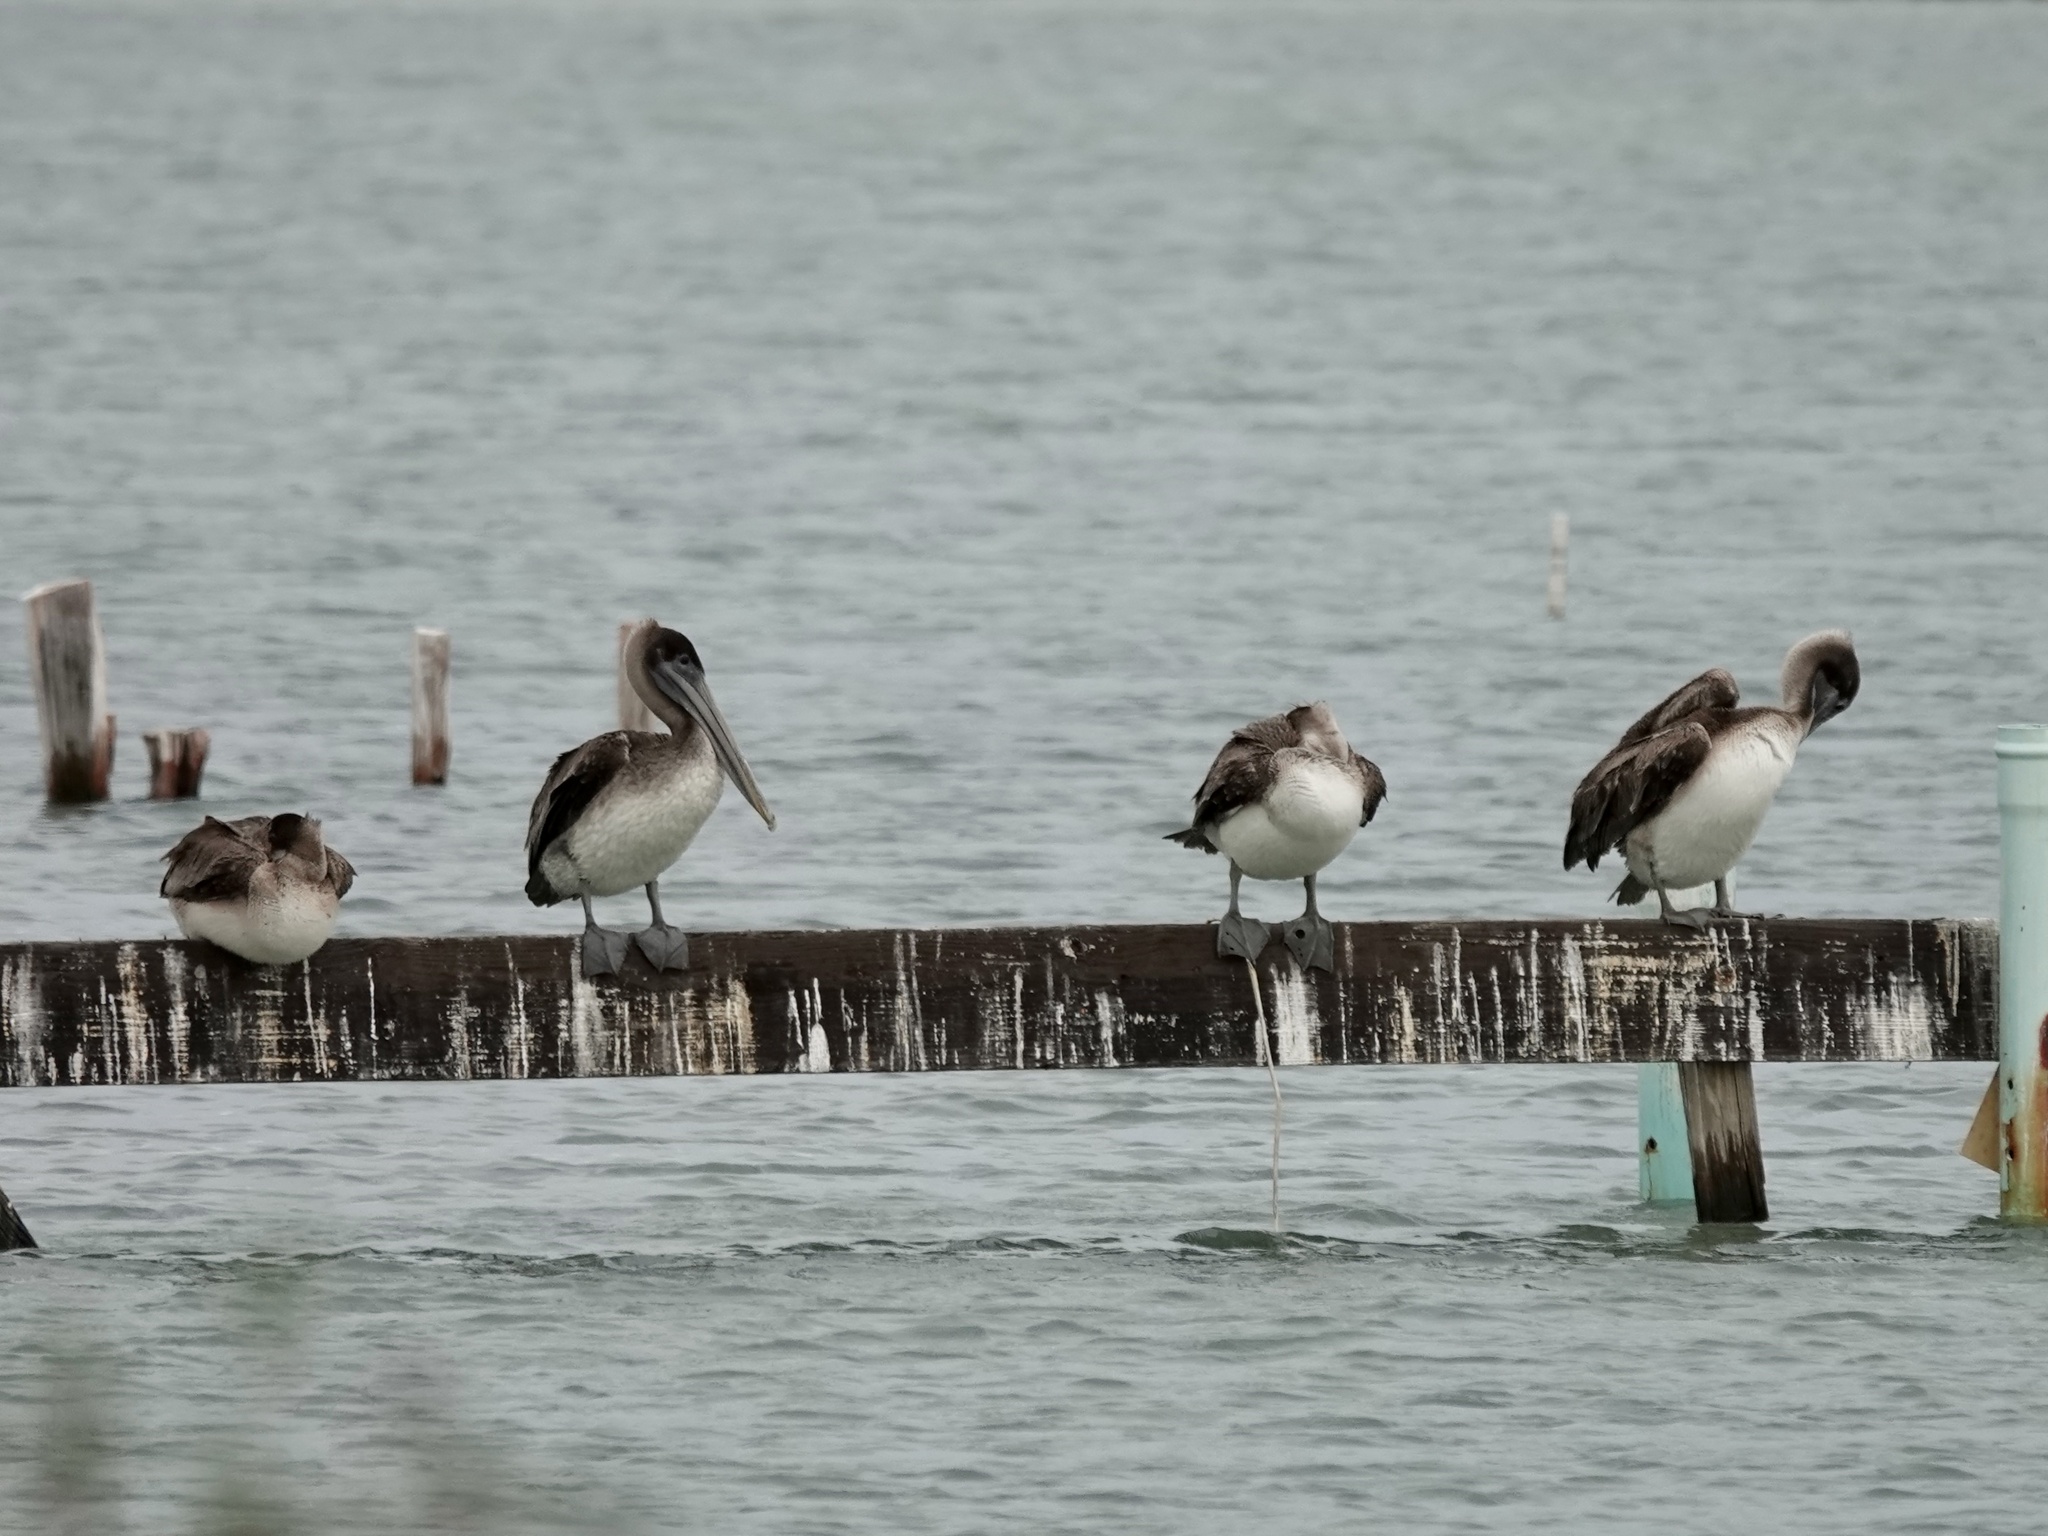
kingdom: Animalia
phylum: Chordata
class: Aves
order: Pelecaniformes
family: Pelecanidae
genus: Pelecanus
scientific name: Pelecanus occidentalis
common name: Brown pelican
